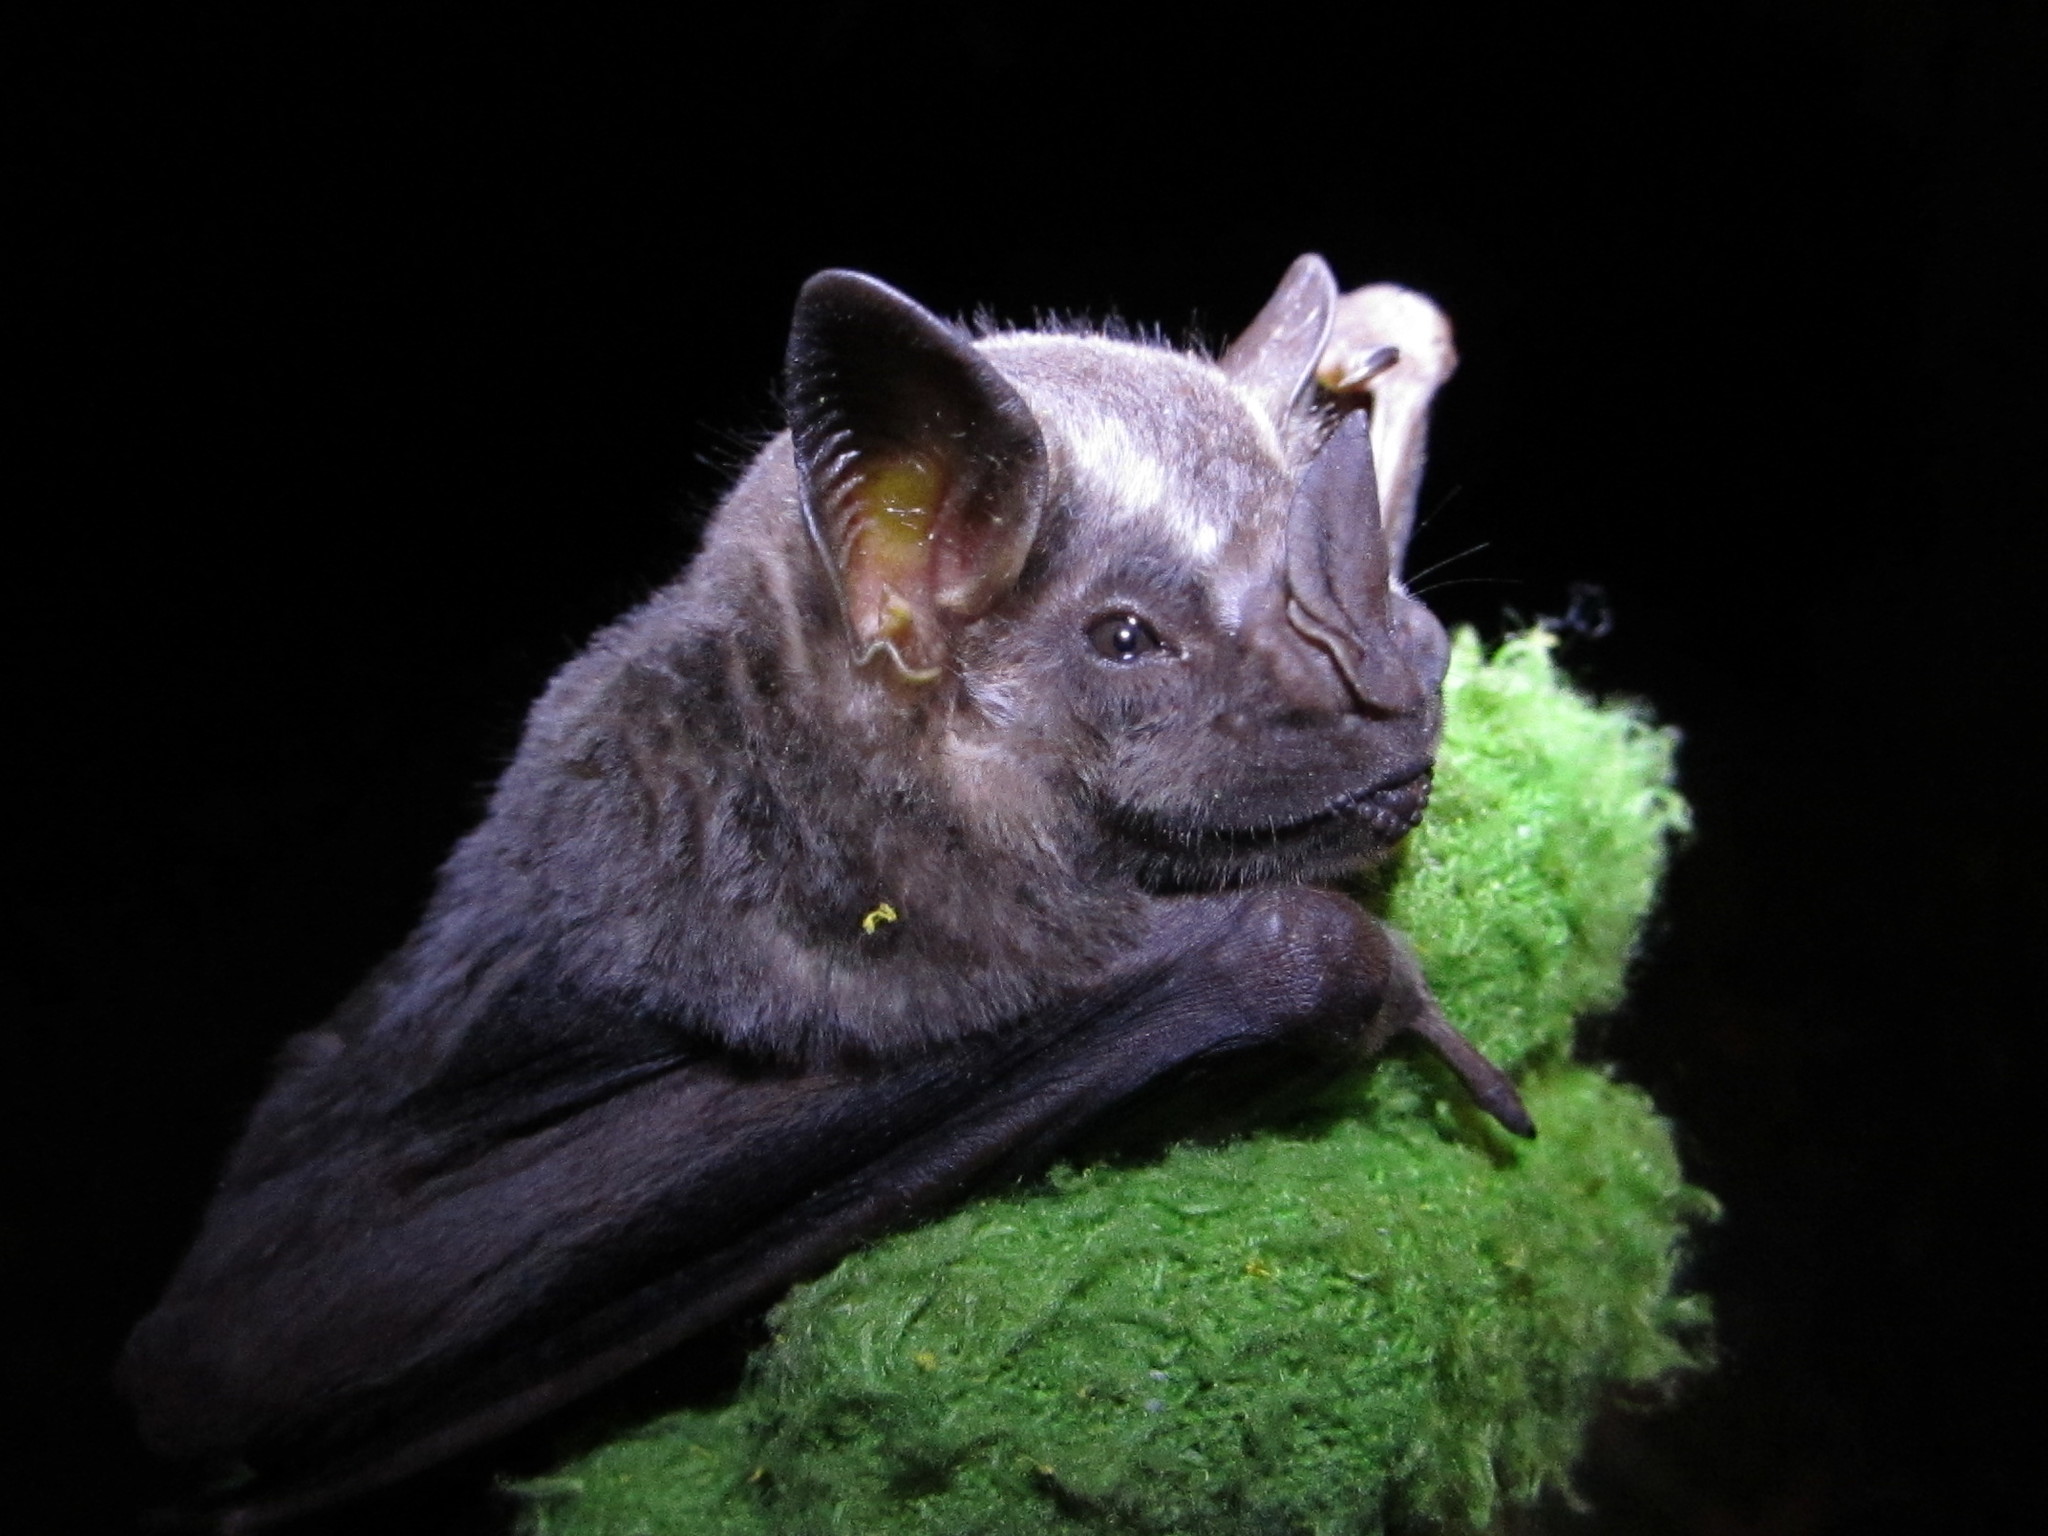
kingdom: Animalia
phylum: Chordata
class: Mammalia
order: Chiroptera
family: Phyllostomidae
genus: Artibeus
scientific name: Artibeus lituratus
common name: Great fruit-eating bat
